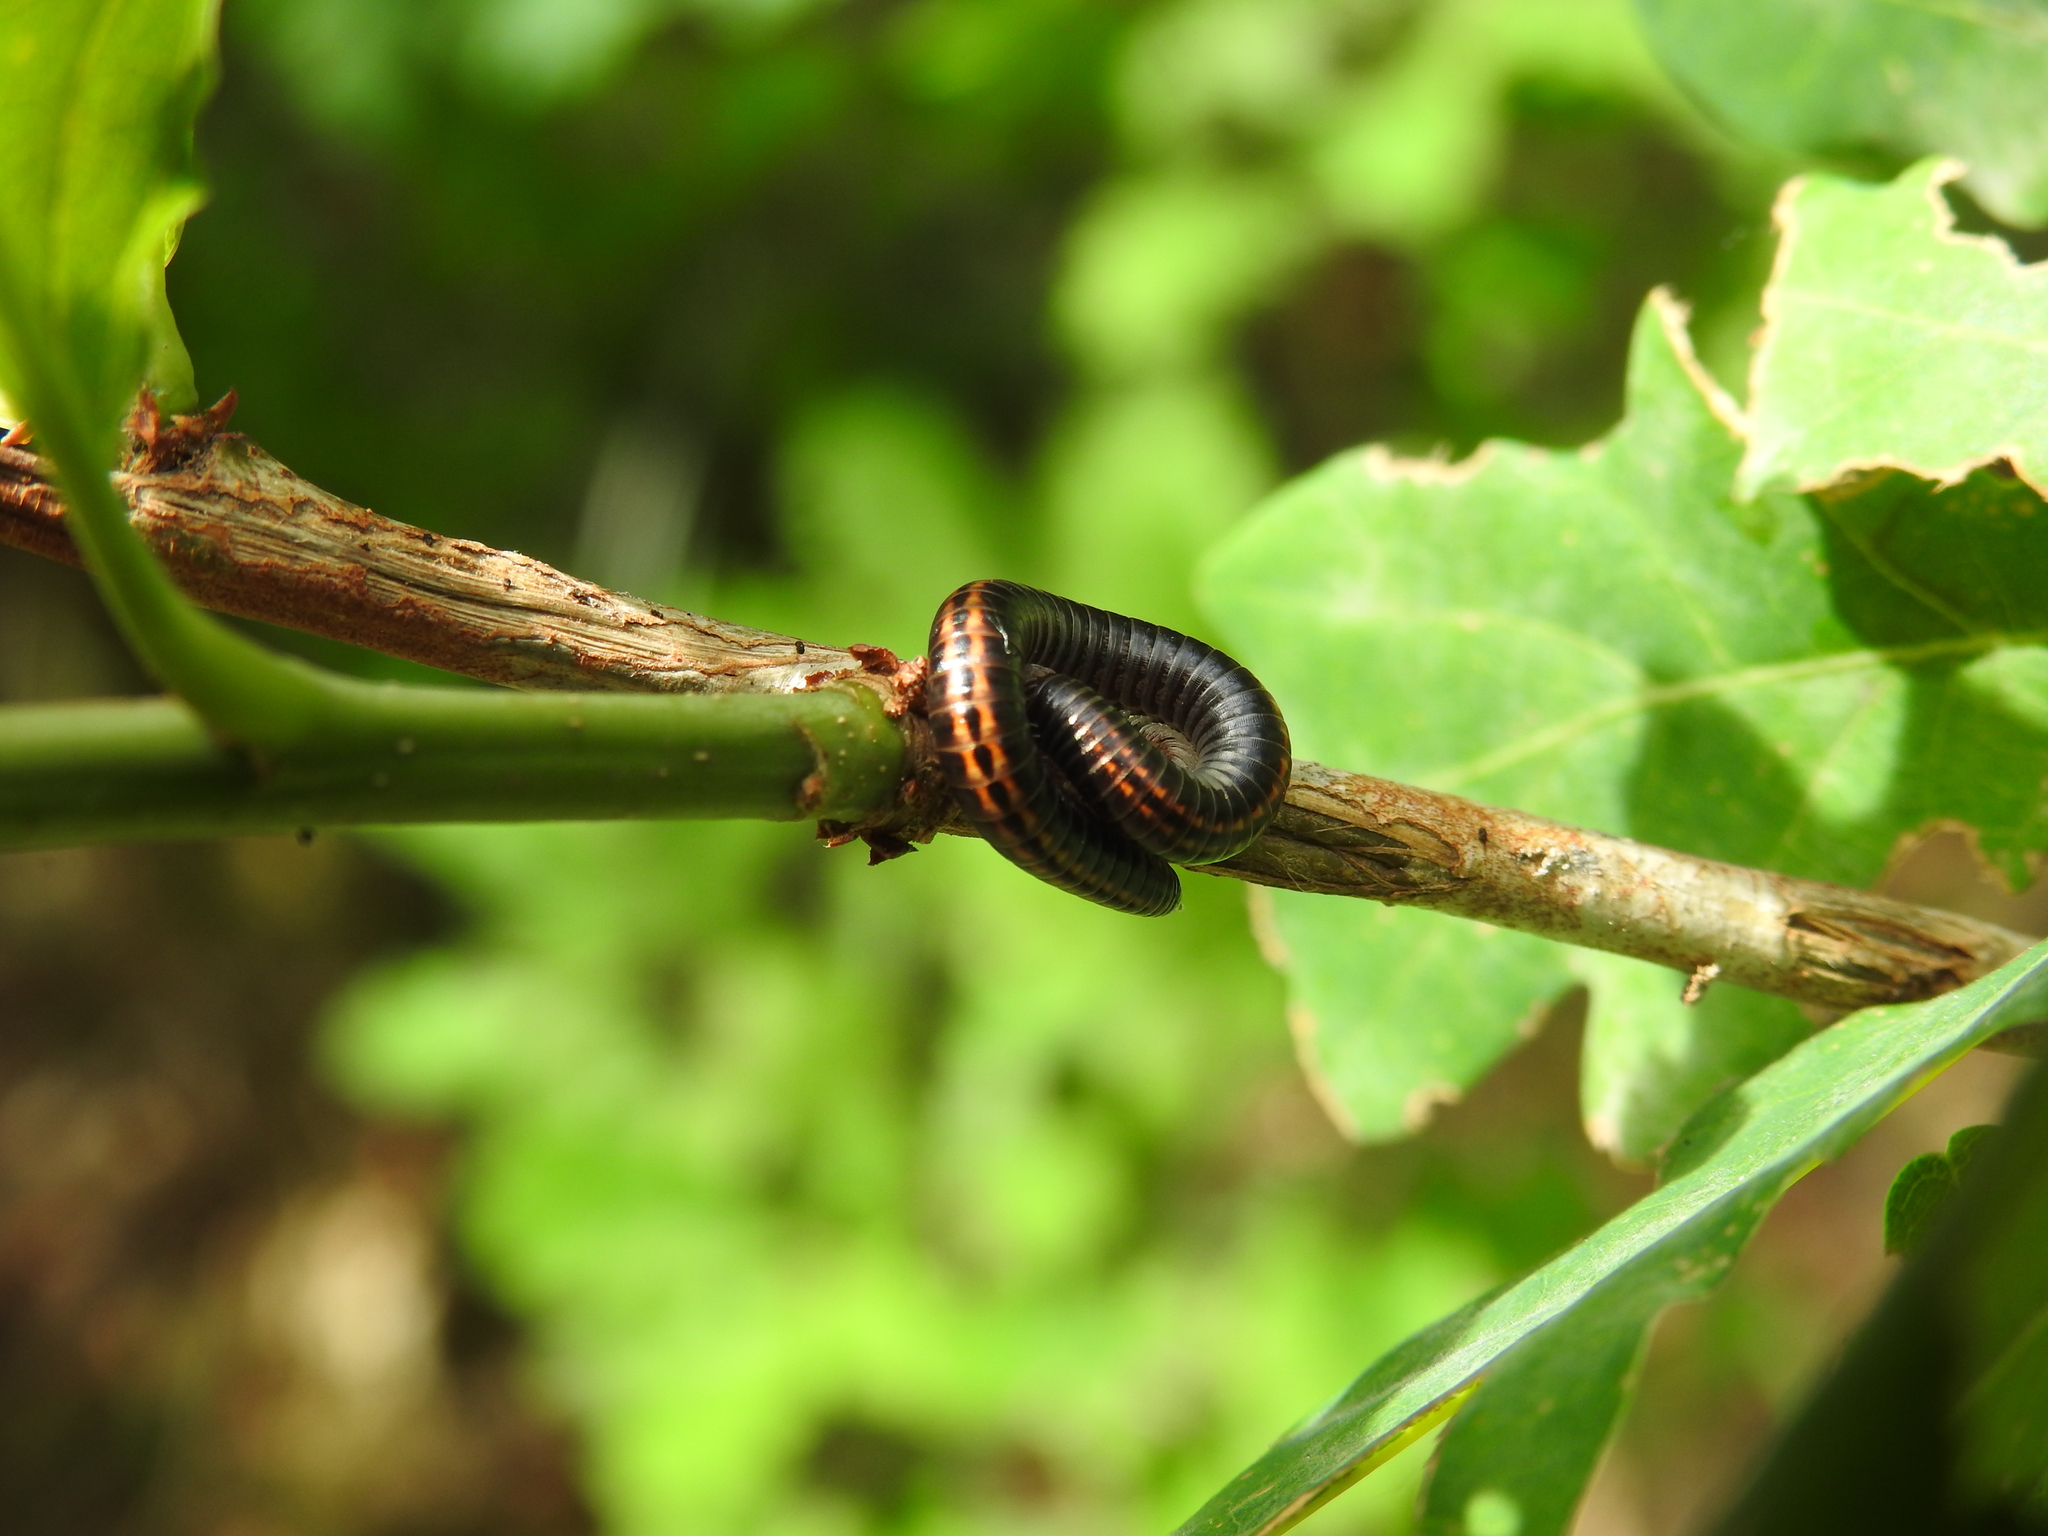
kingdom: Animalia
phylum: Arthropoda
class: Diplopoda
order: Julida
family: Julidae
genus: Ommatoiulus
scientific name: Ommatoiulus sabulosus
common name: Striped millipede
